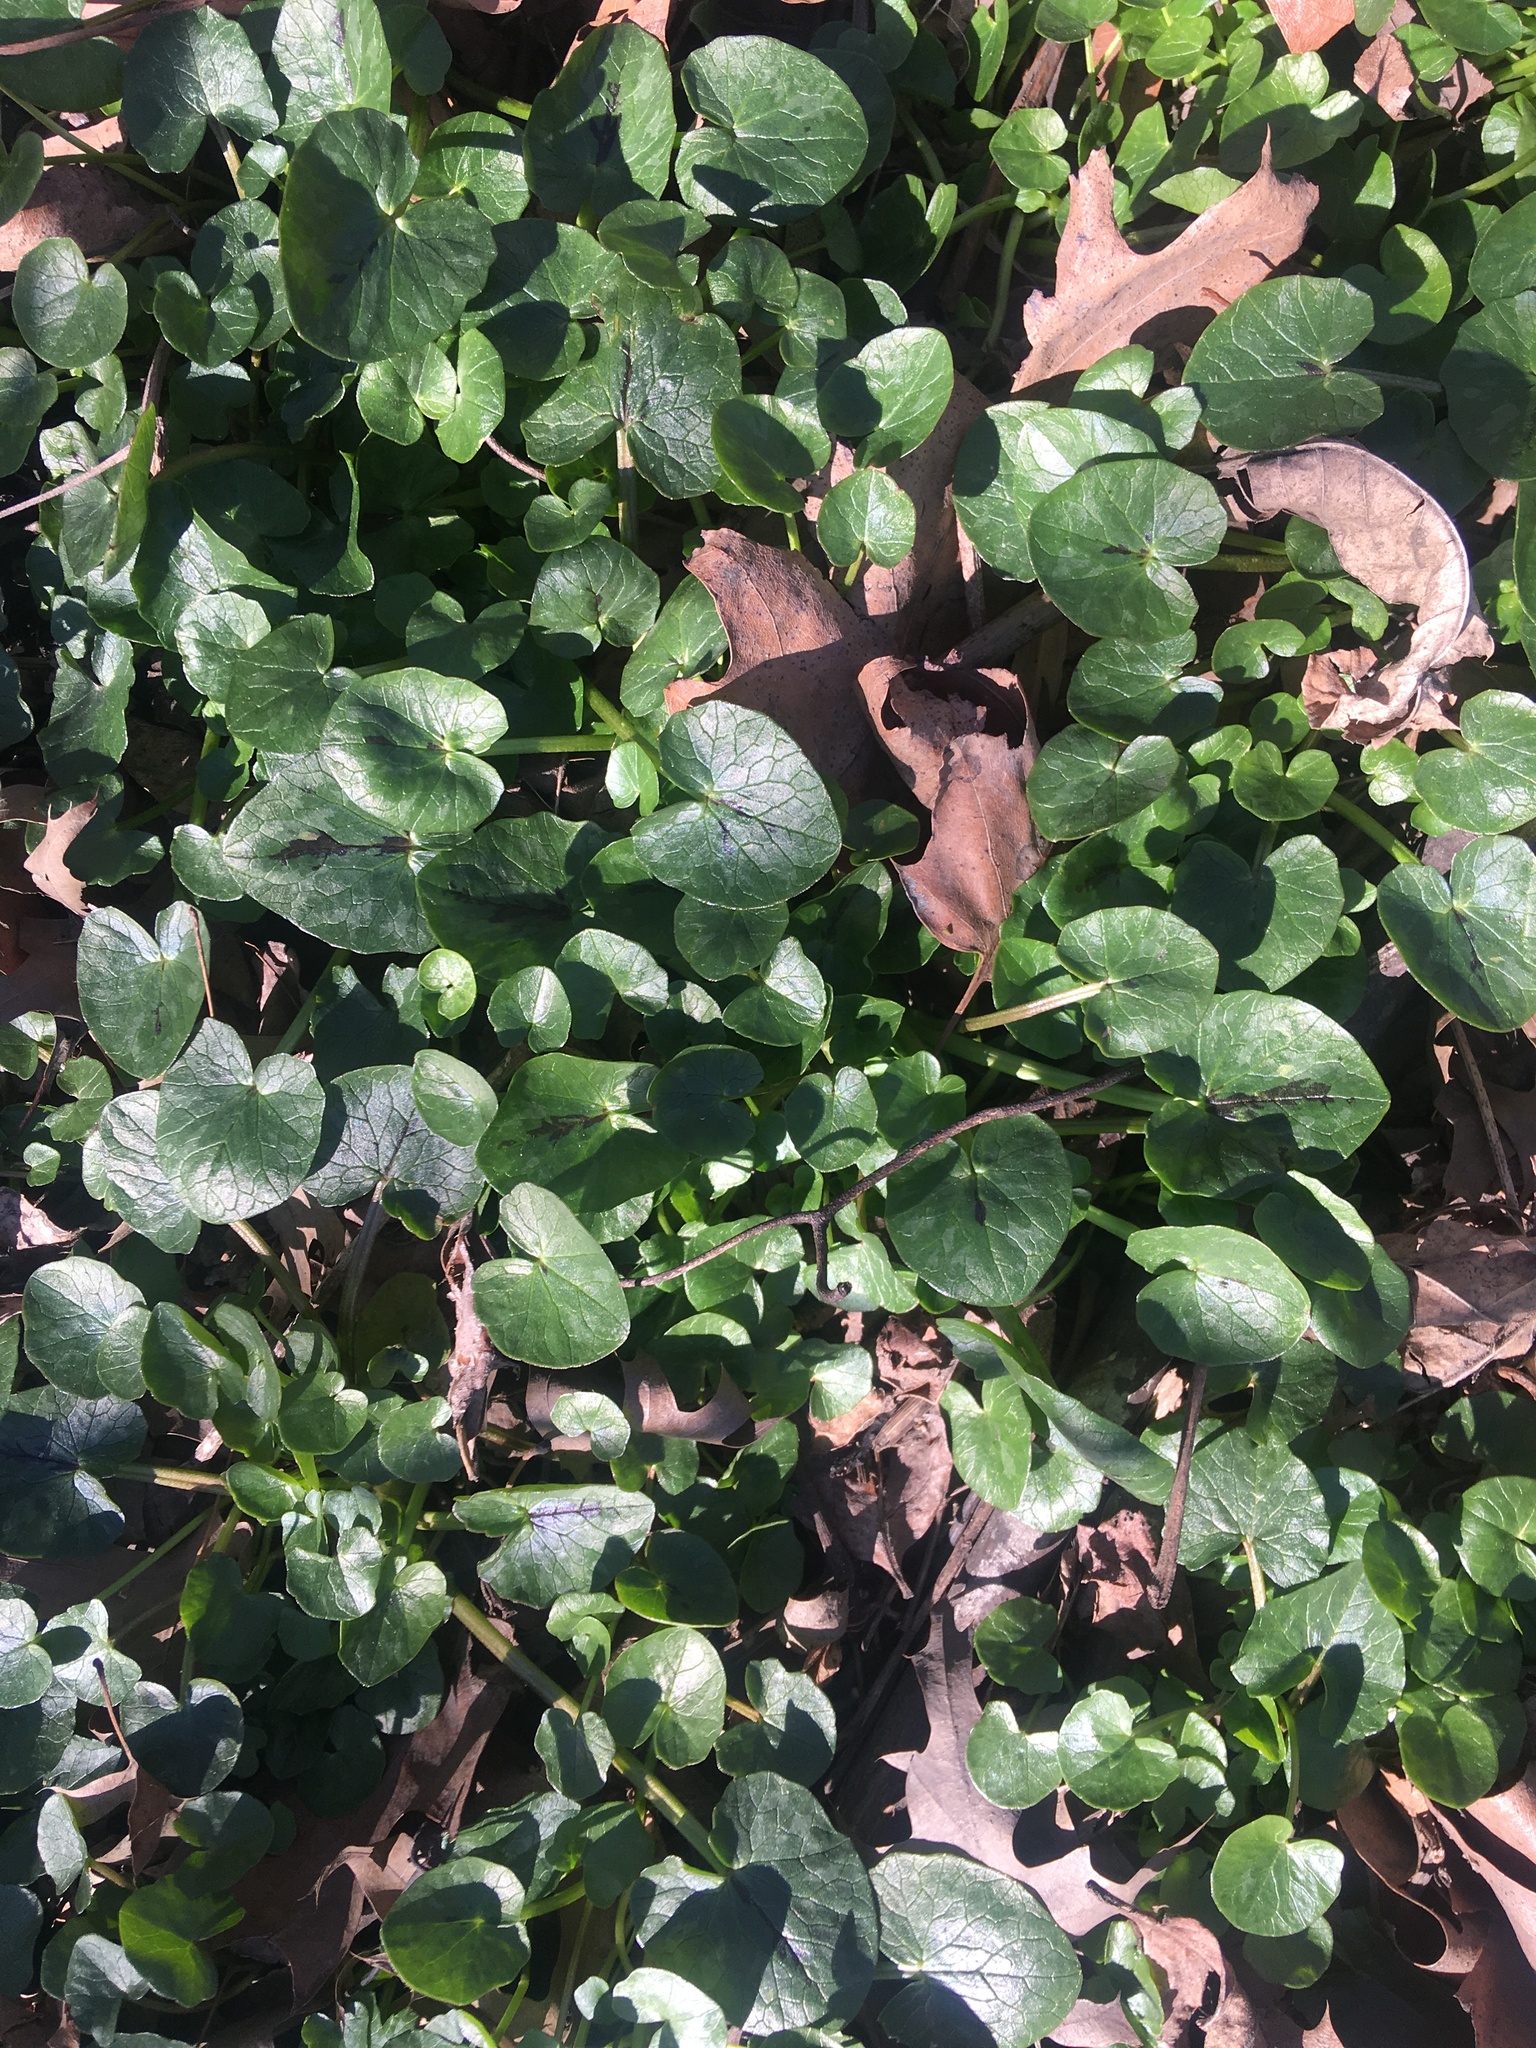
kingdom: Plantae
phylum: Tracheophyta
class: Magnoliopsida
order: Ranunculales
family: Ranunculaceae
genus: Ficaria
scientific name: Ficaria verna
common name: Lesser celandine
